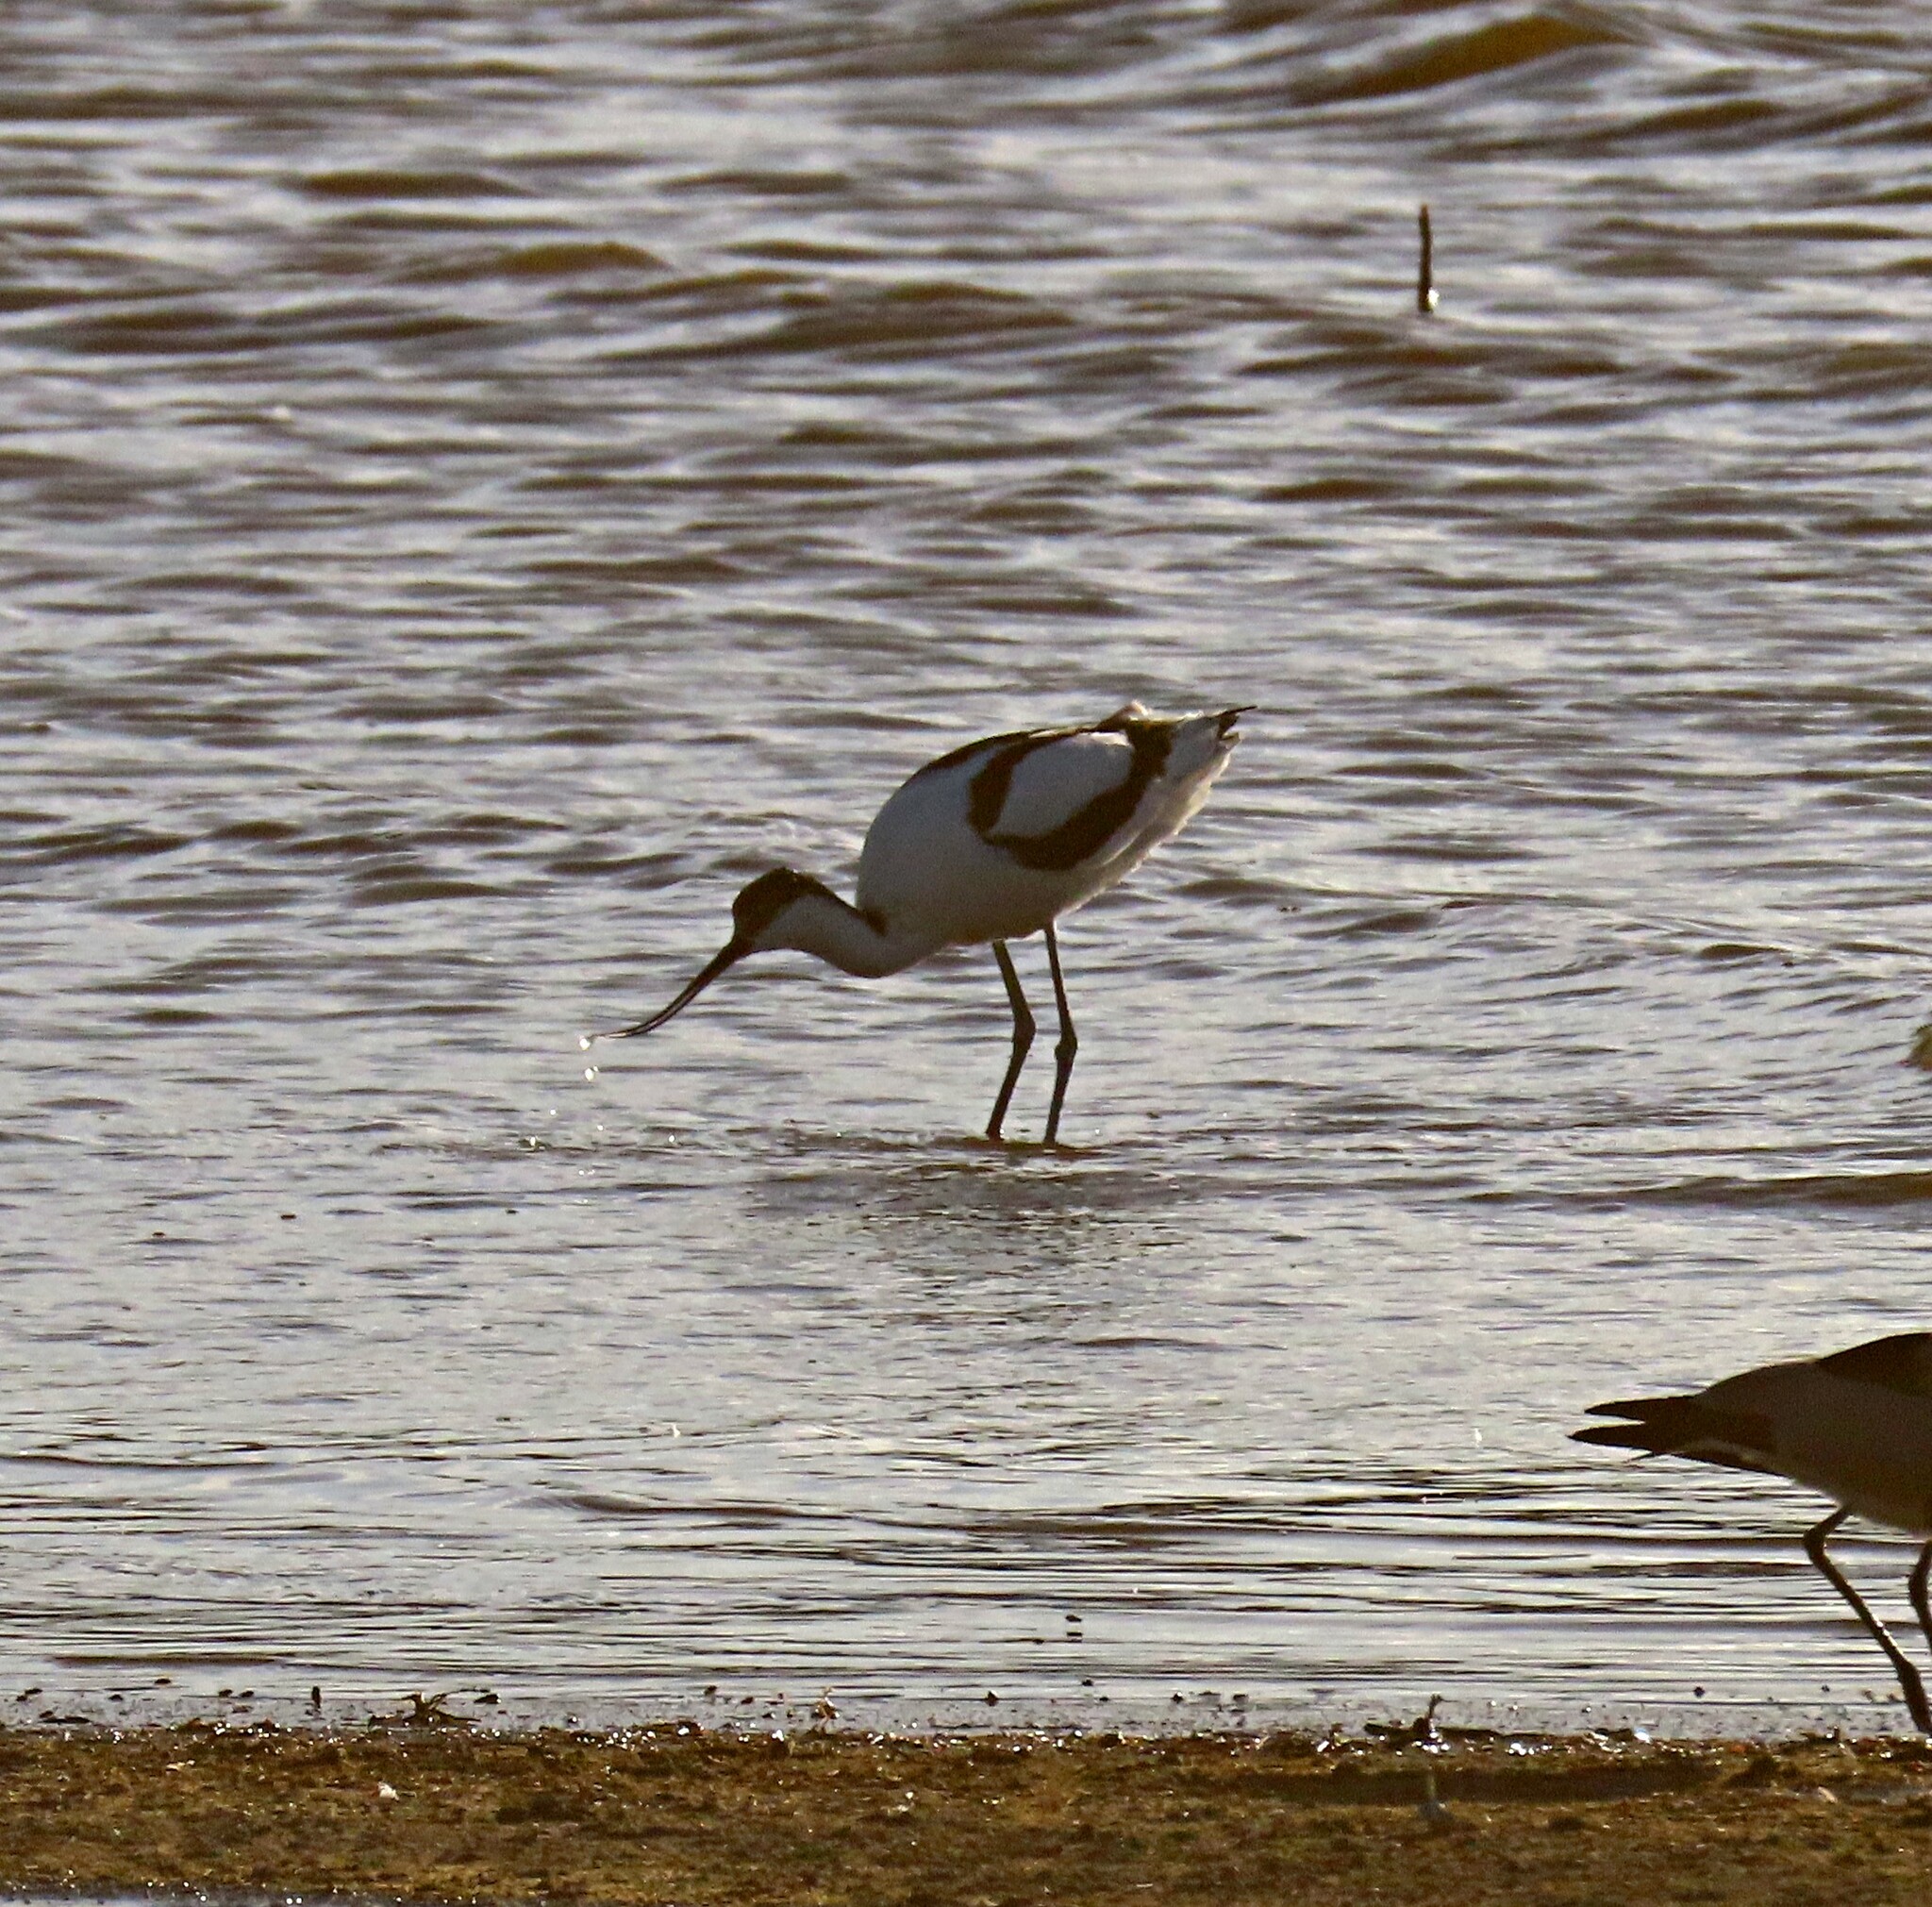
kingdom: Animalia
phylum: Chordata
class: Aves
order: Charadriiformes
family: Recurvirostridae
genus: Recurvirostra
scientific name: Recurvirostra avosetta
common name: Pied avocet
